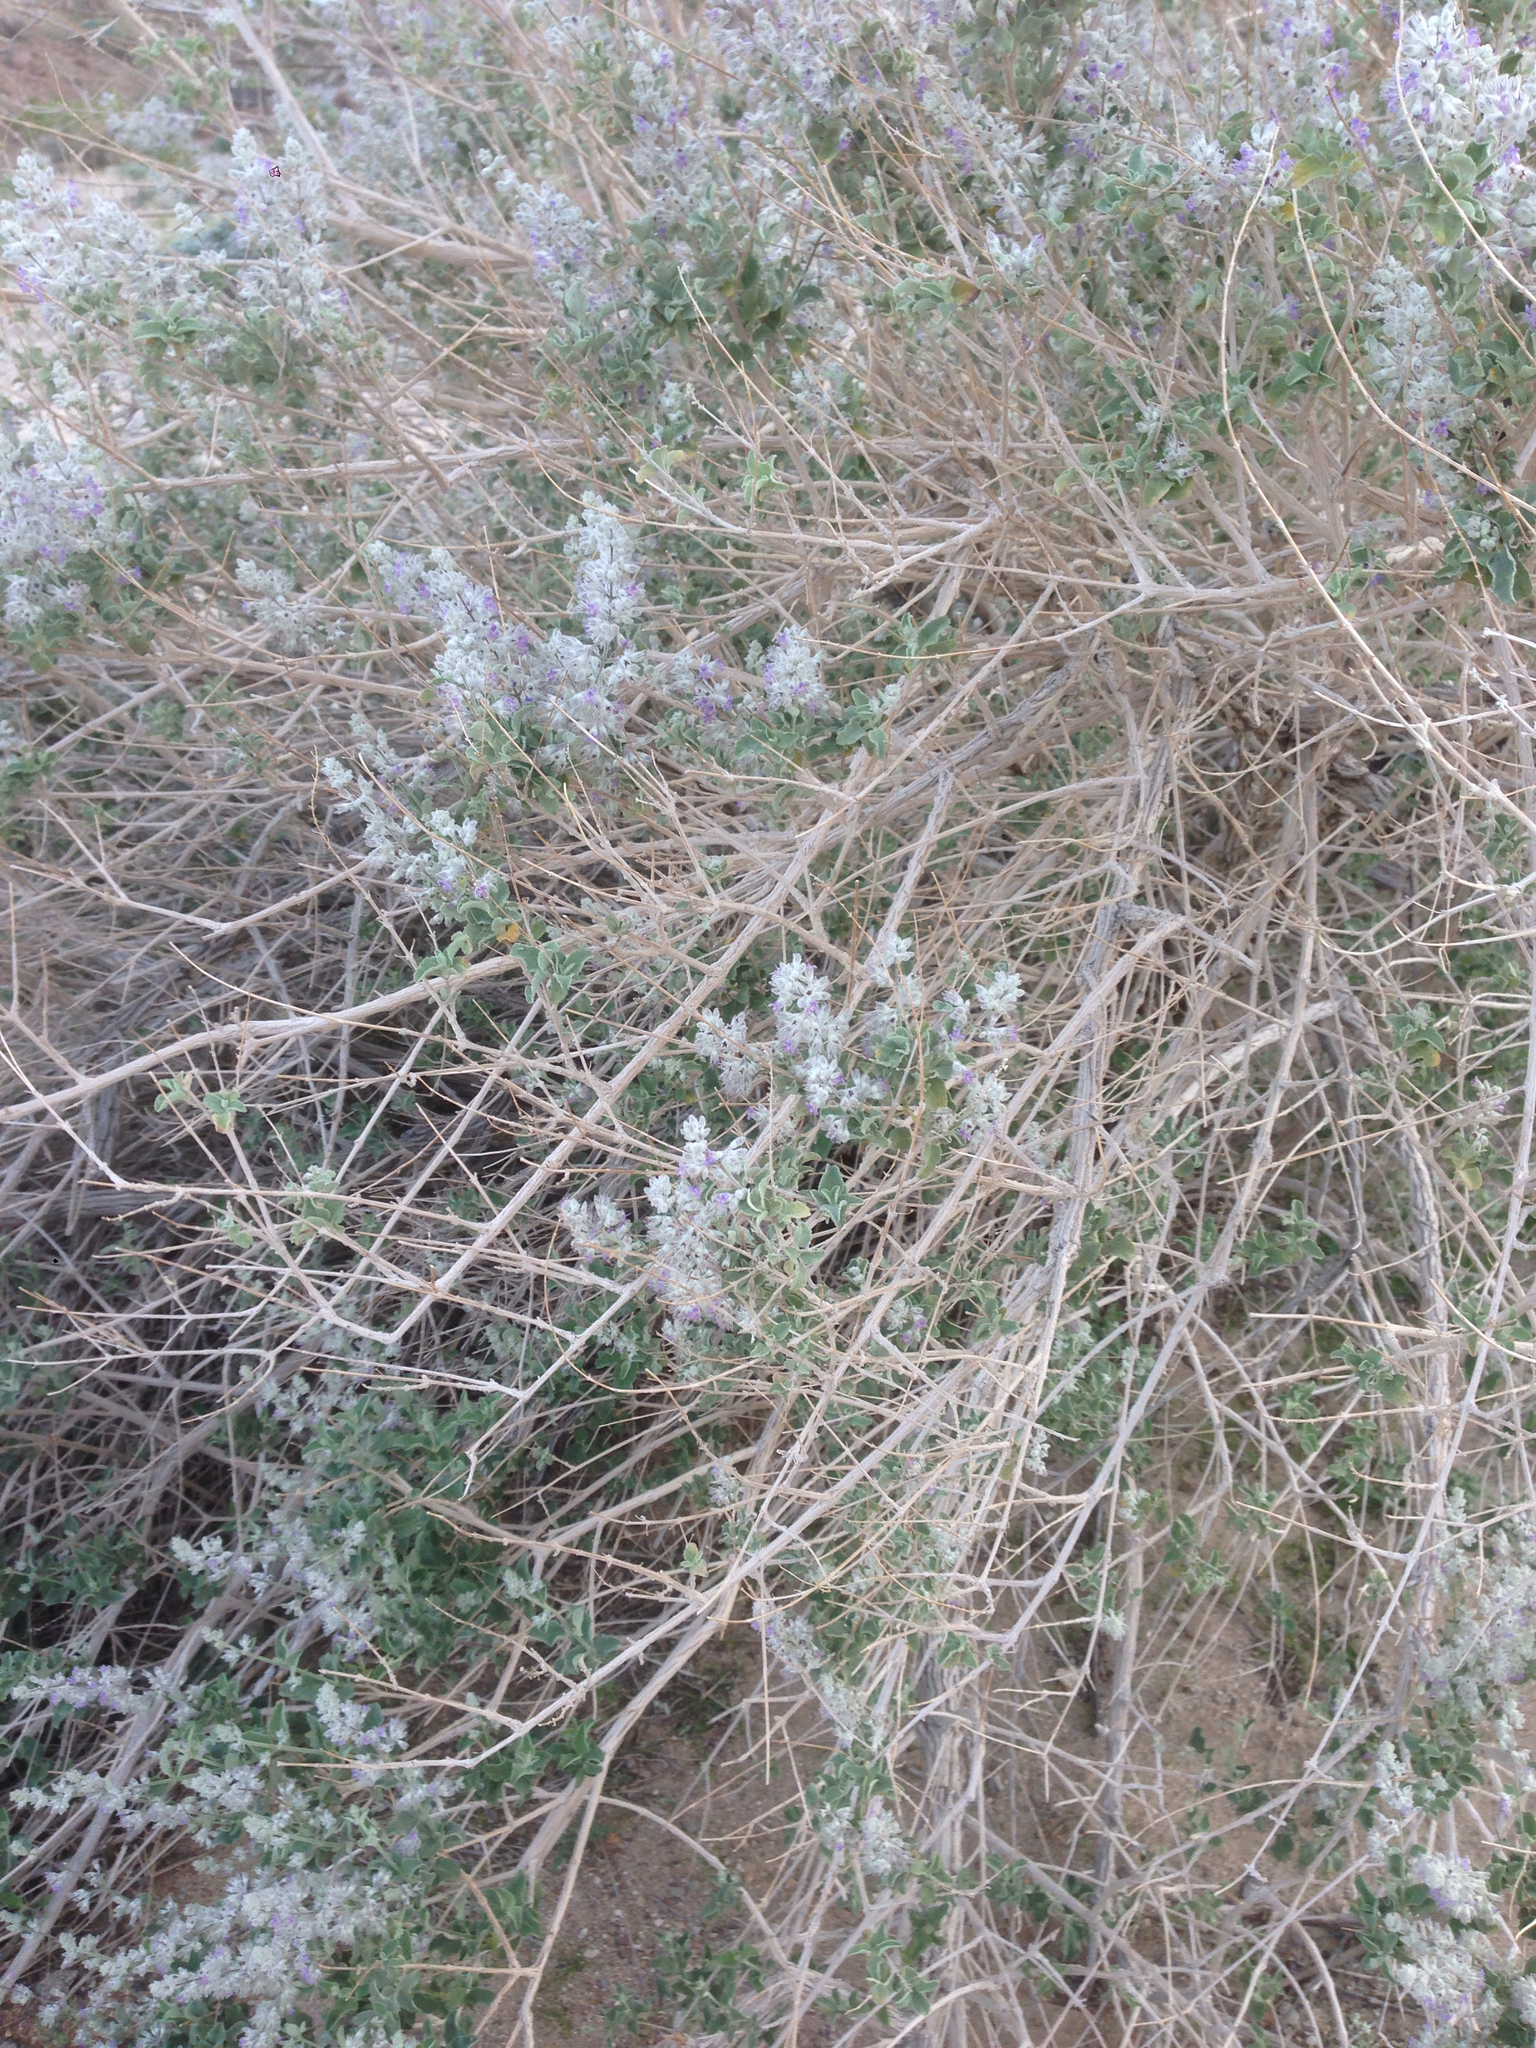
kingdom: Plantae
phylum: Tracheophyta
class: Magnoliopsida
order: Lamiales
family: Lamiaceae
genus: Condea
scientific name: Condea emoryi
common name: Chia
